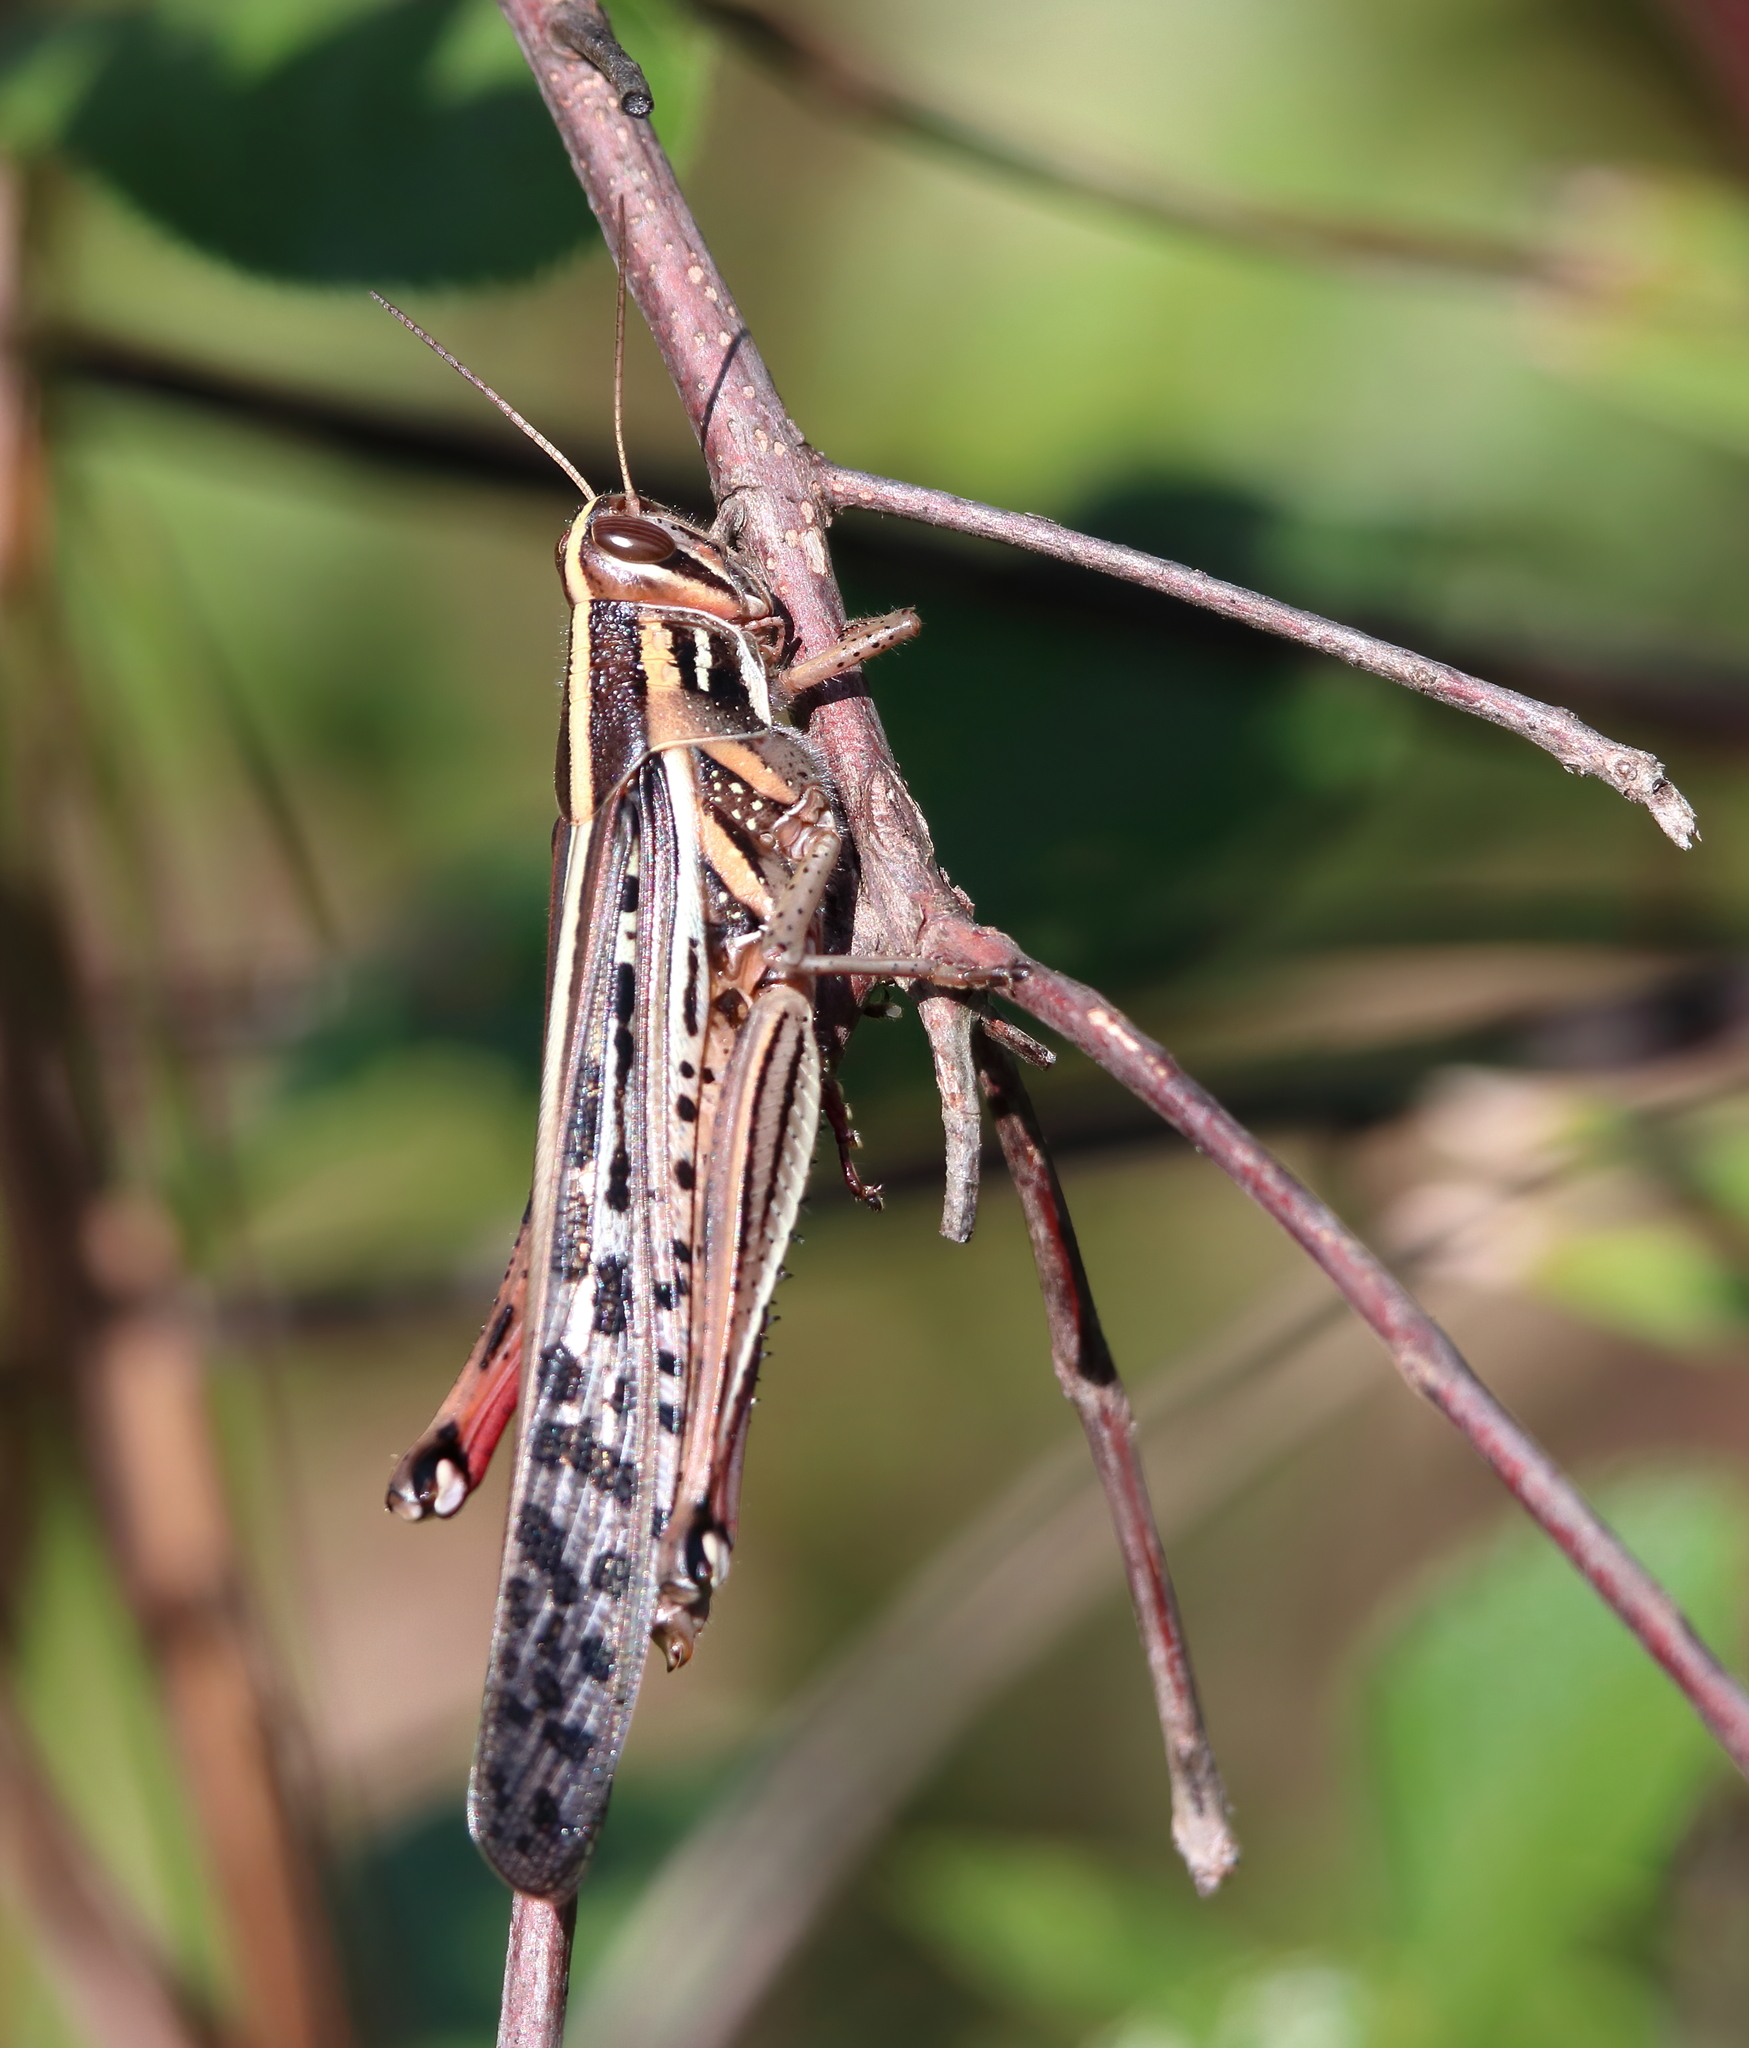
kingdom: Animalia
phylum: Arthropoda
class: Insecta
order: Orthoptera
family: Acrididae
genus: Schistocerca
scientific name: Schistocerca americana
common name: American bird locust
